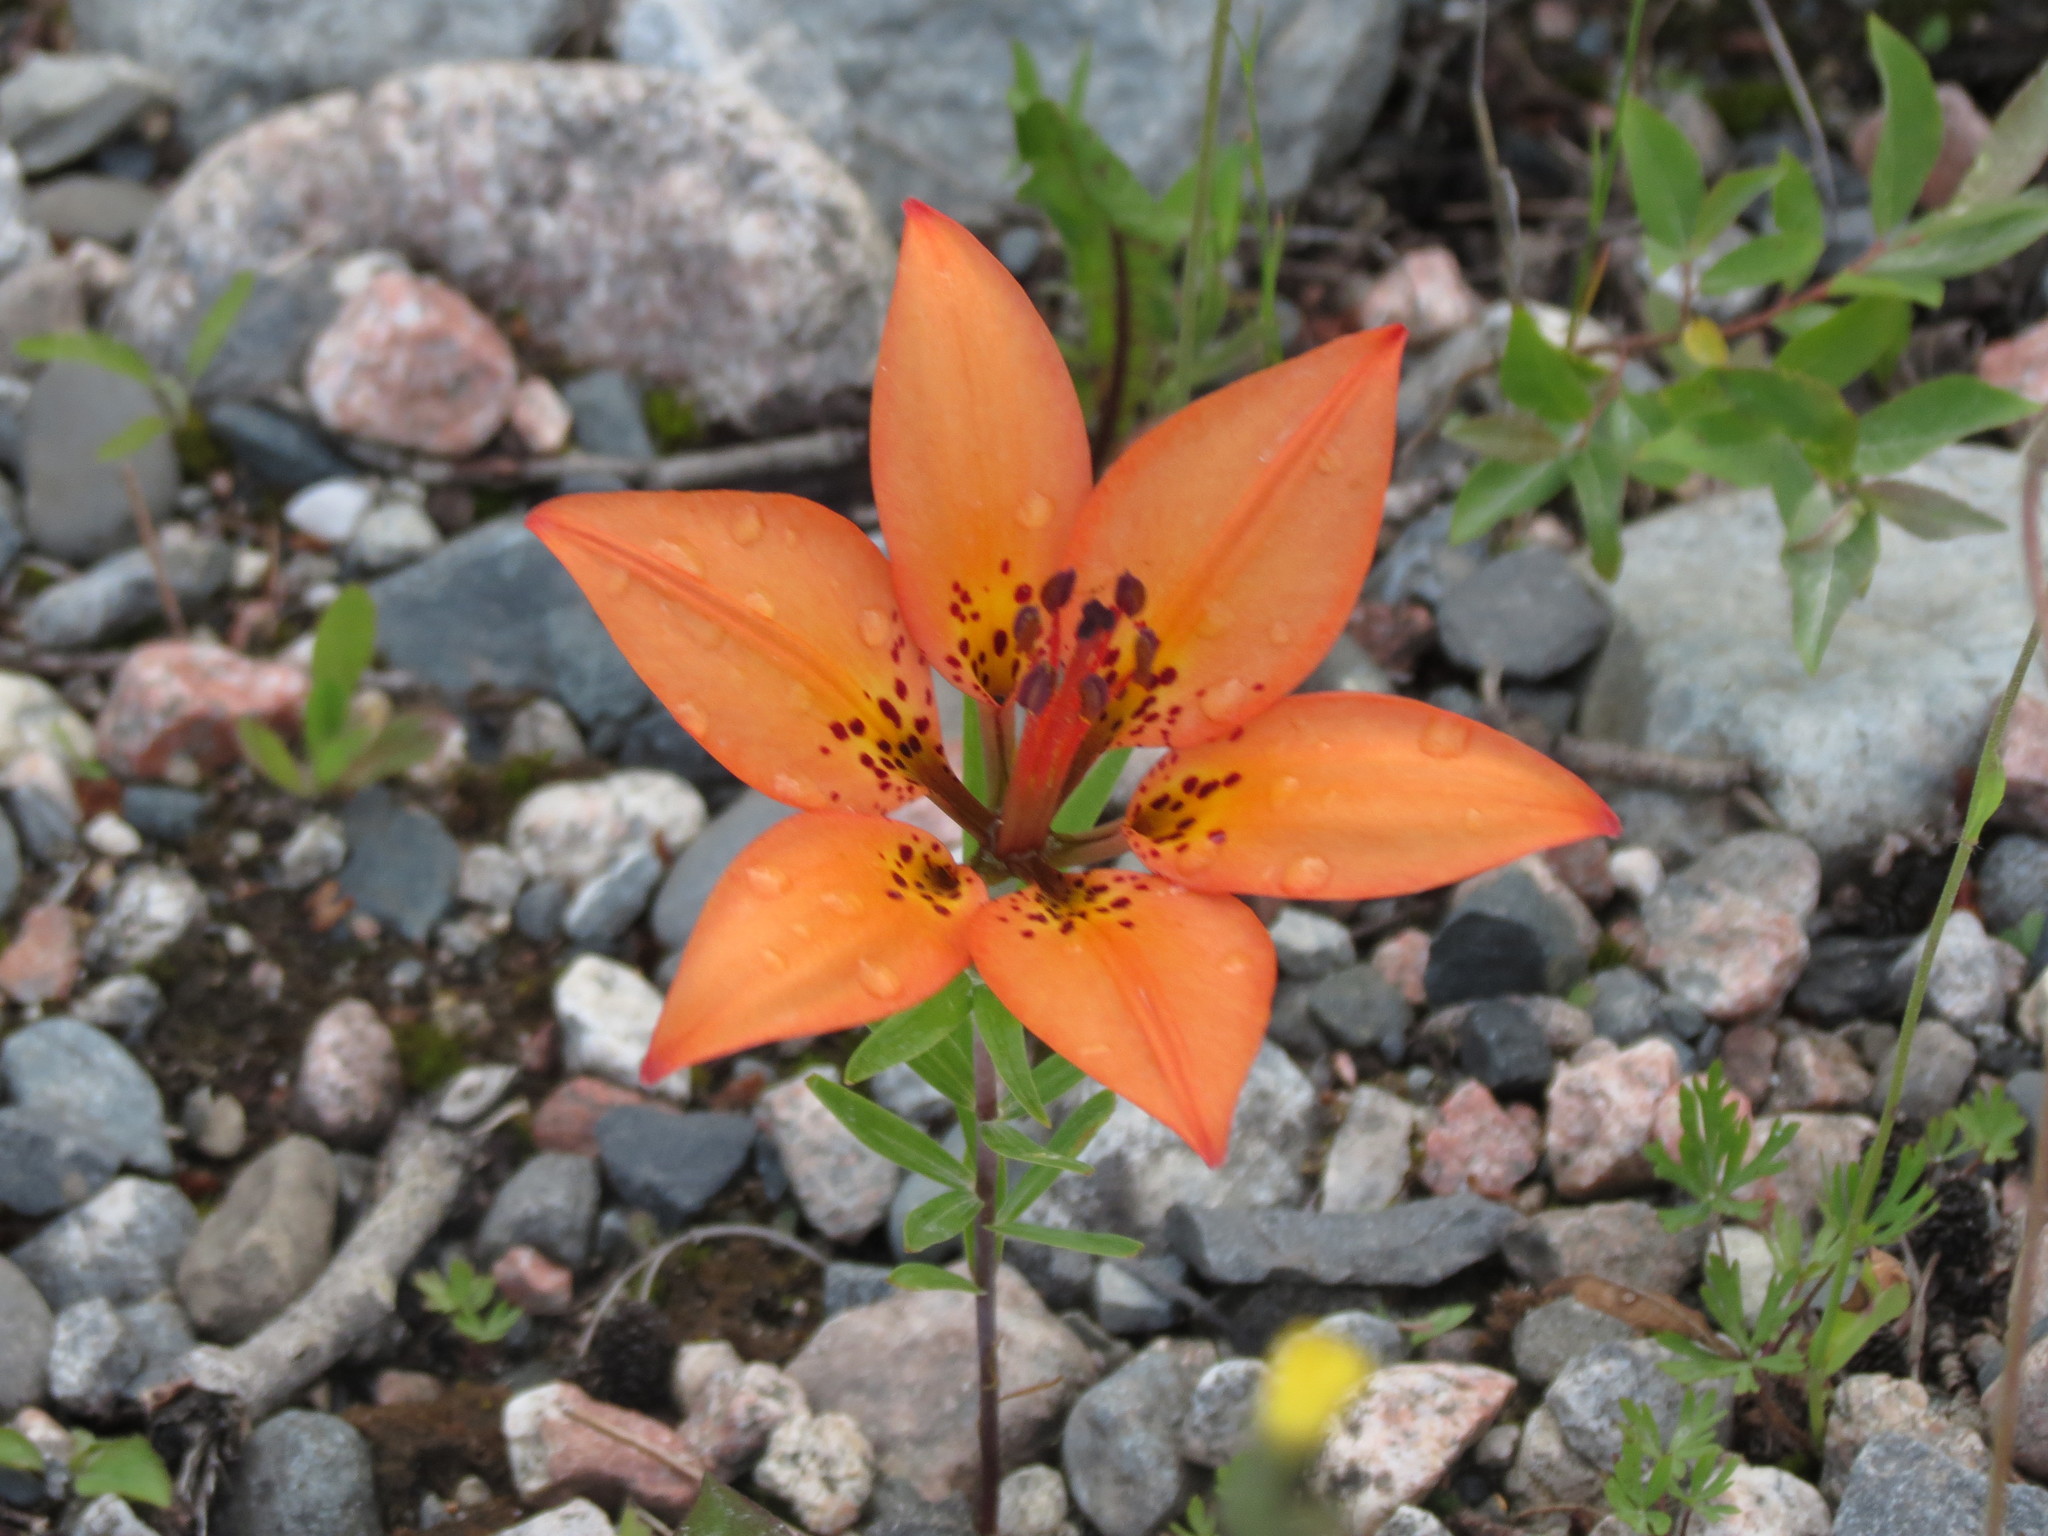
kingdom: Plantae
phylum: Tracheophyta
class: Liliopsida
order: Liliales
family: Liliaceae
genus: Lilium
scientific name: Lilium philadelphicum
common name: Red lily
